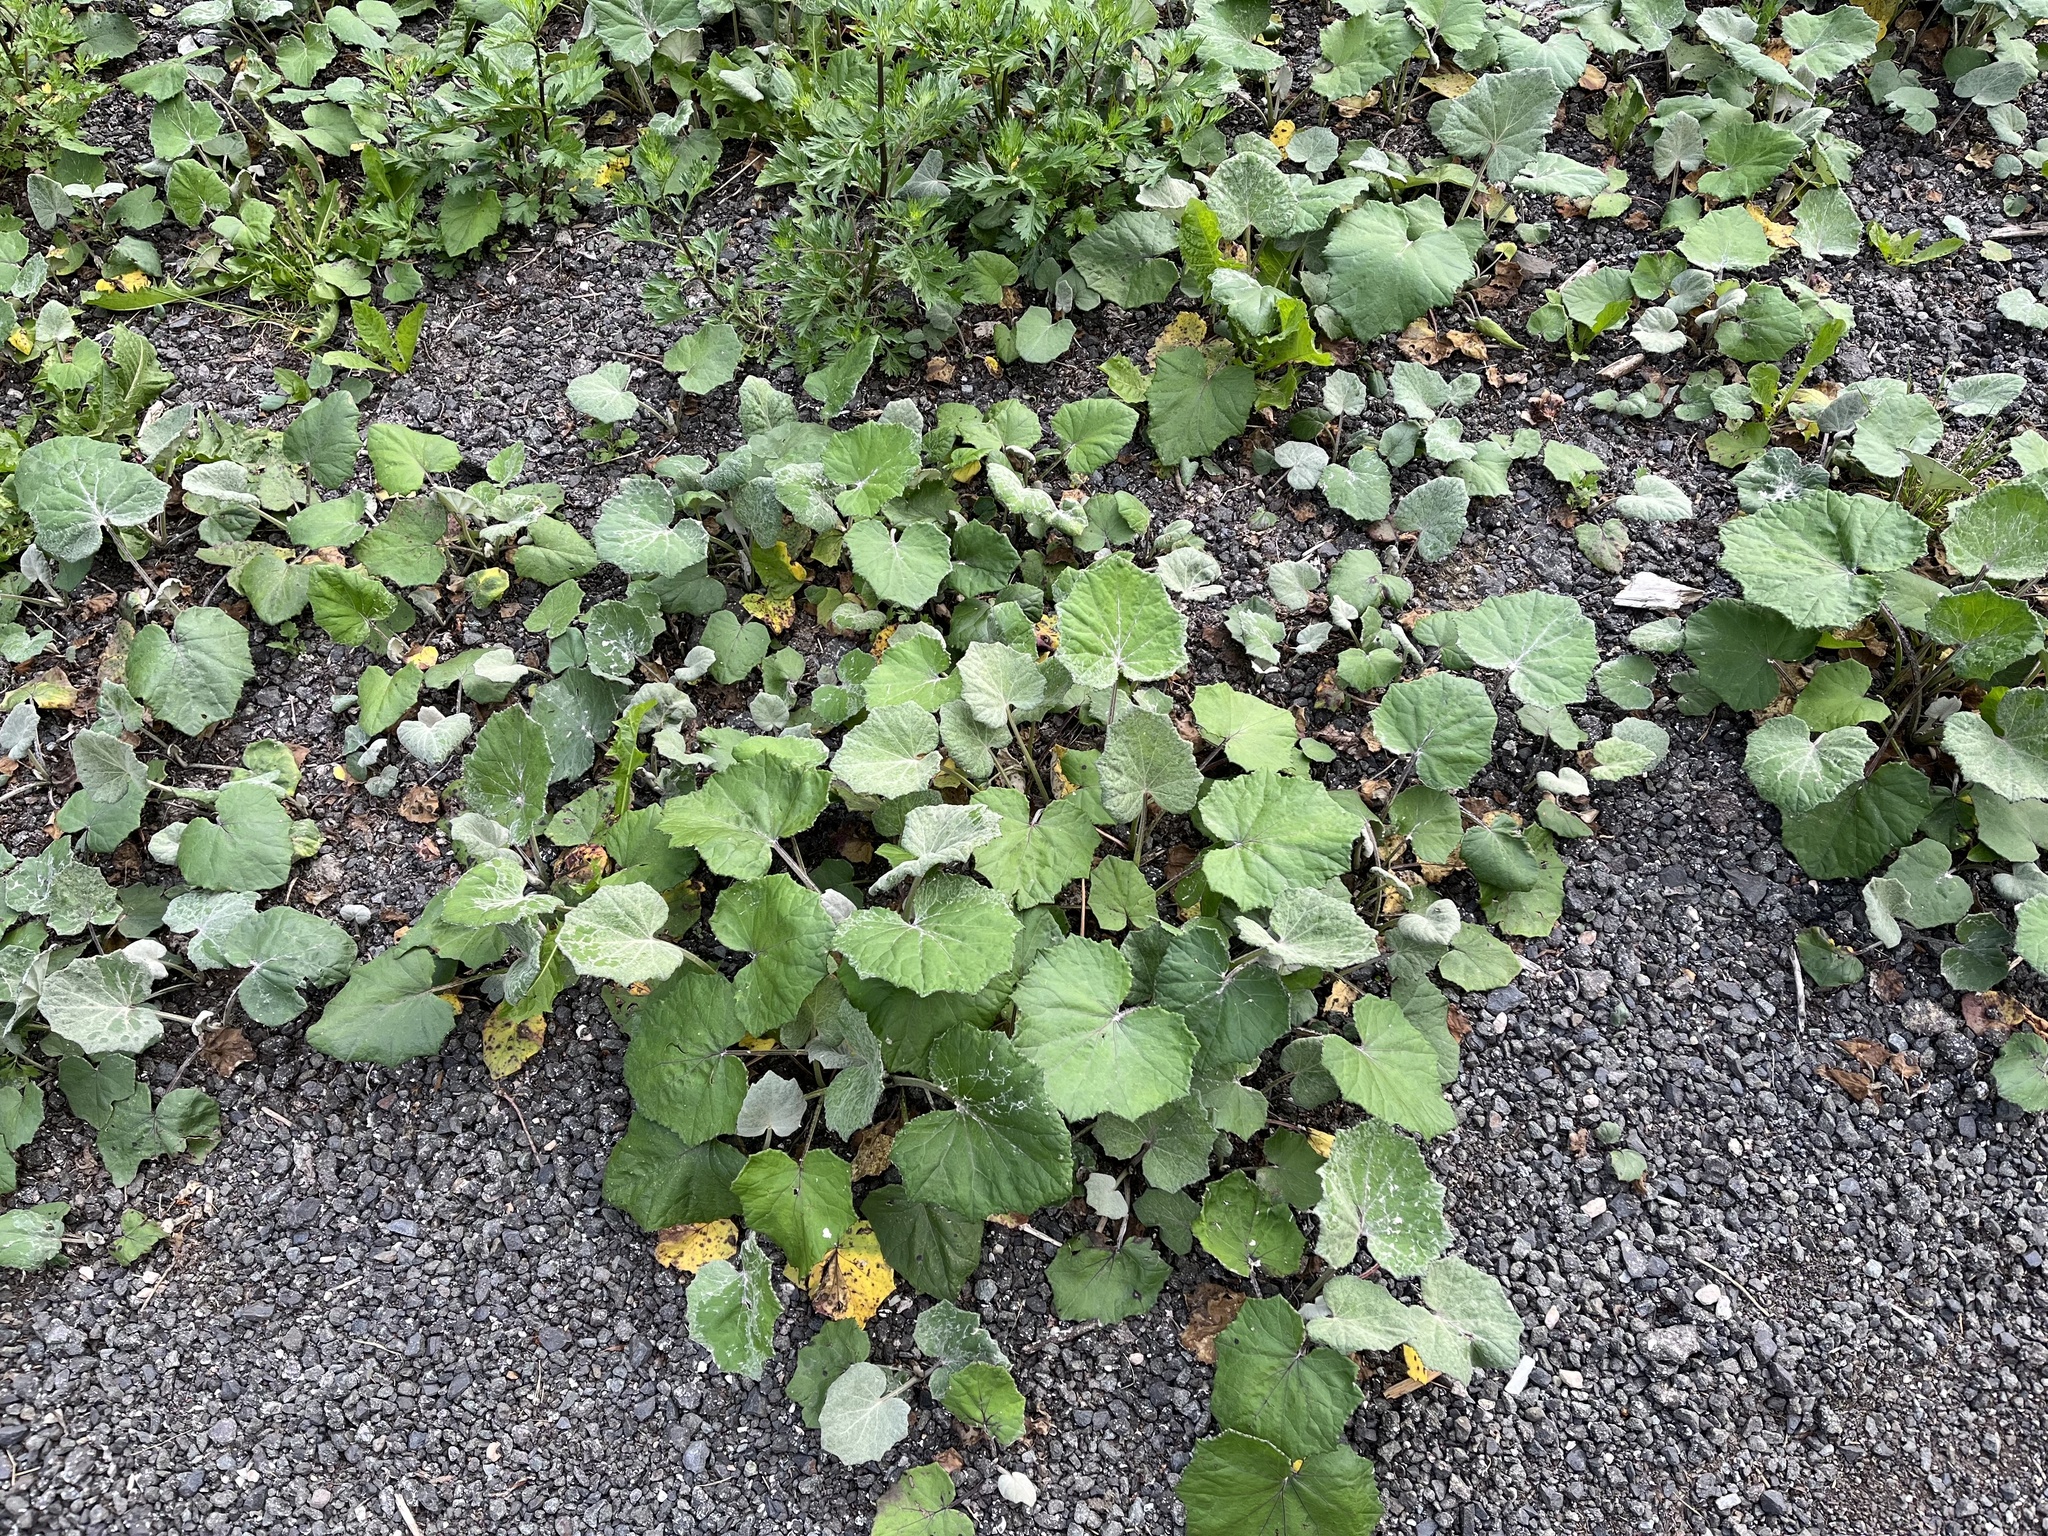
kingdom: Plantae
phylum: Tracheophyta
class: Magnoliopsida
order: Asterales
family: Asteraceae
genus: Tussilago
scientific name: Tussilago farfara
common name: Coltsfoot
